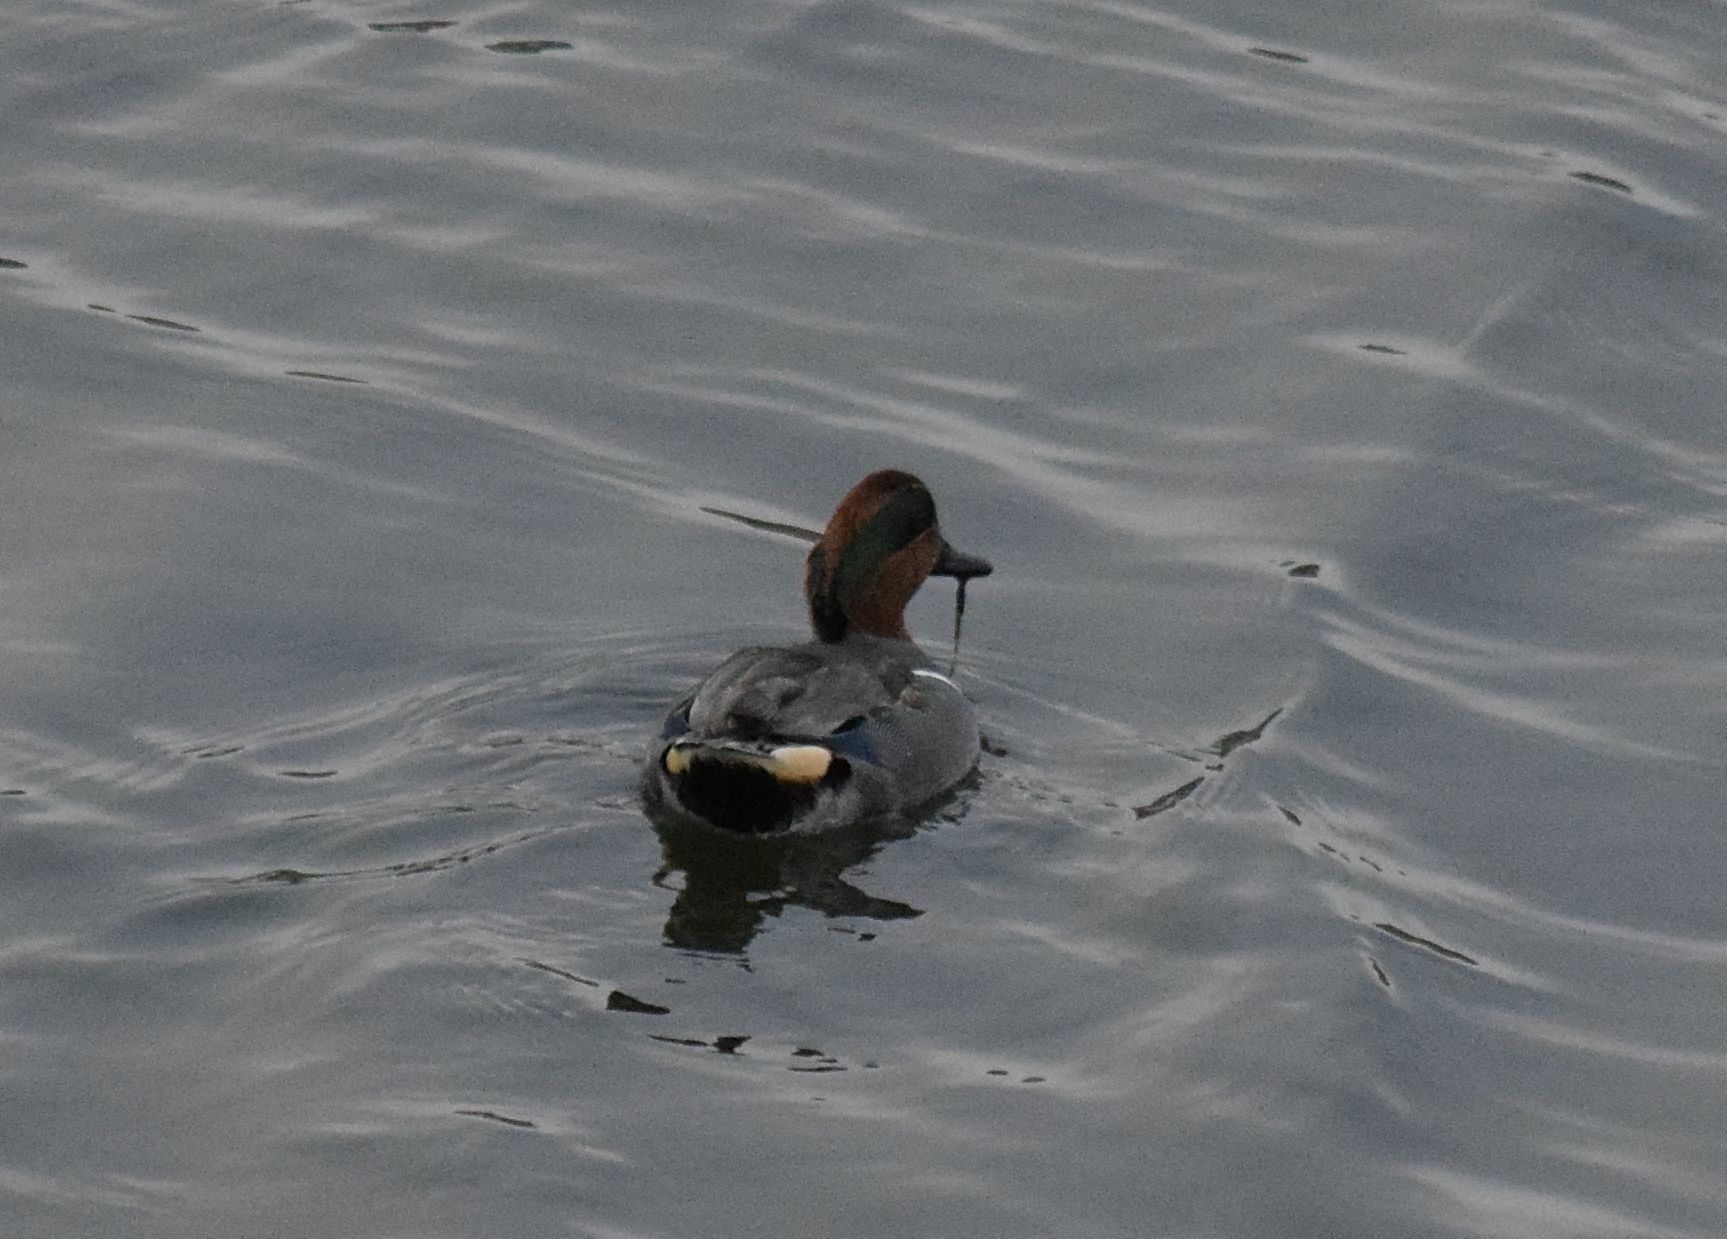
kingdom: Animalia
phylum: Chordata
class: Aves
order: Anseriformes
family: Anatidae
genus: Anas
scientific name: Anas crecca
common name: Eurasian teal
